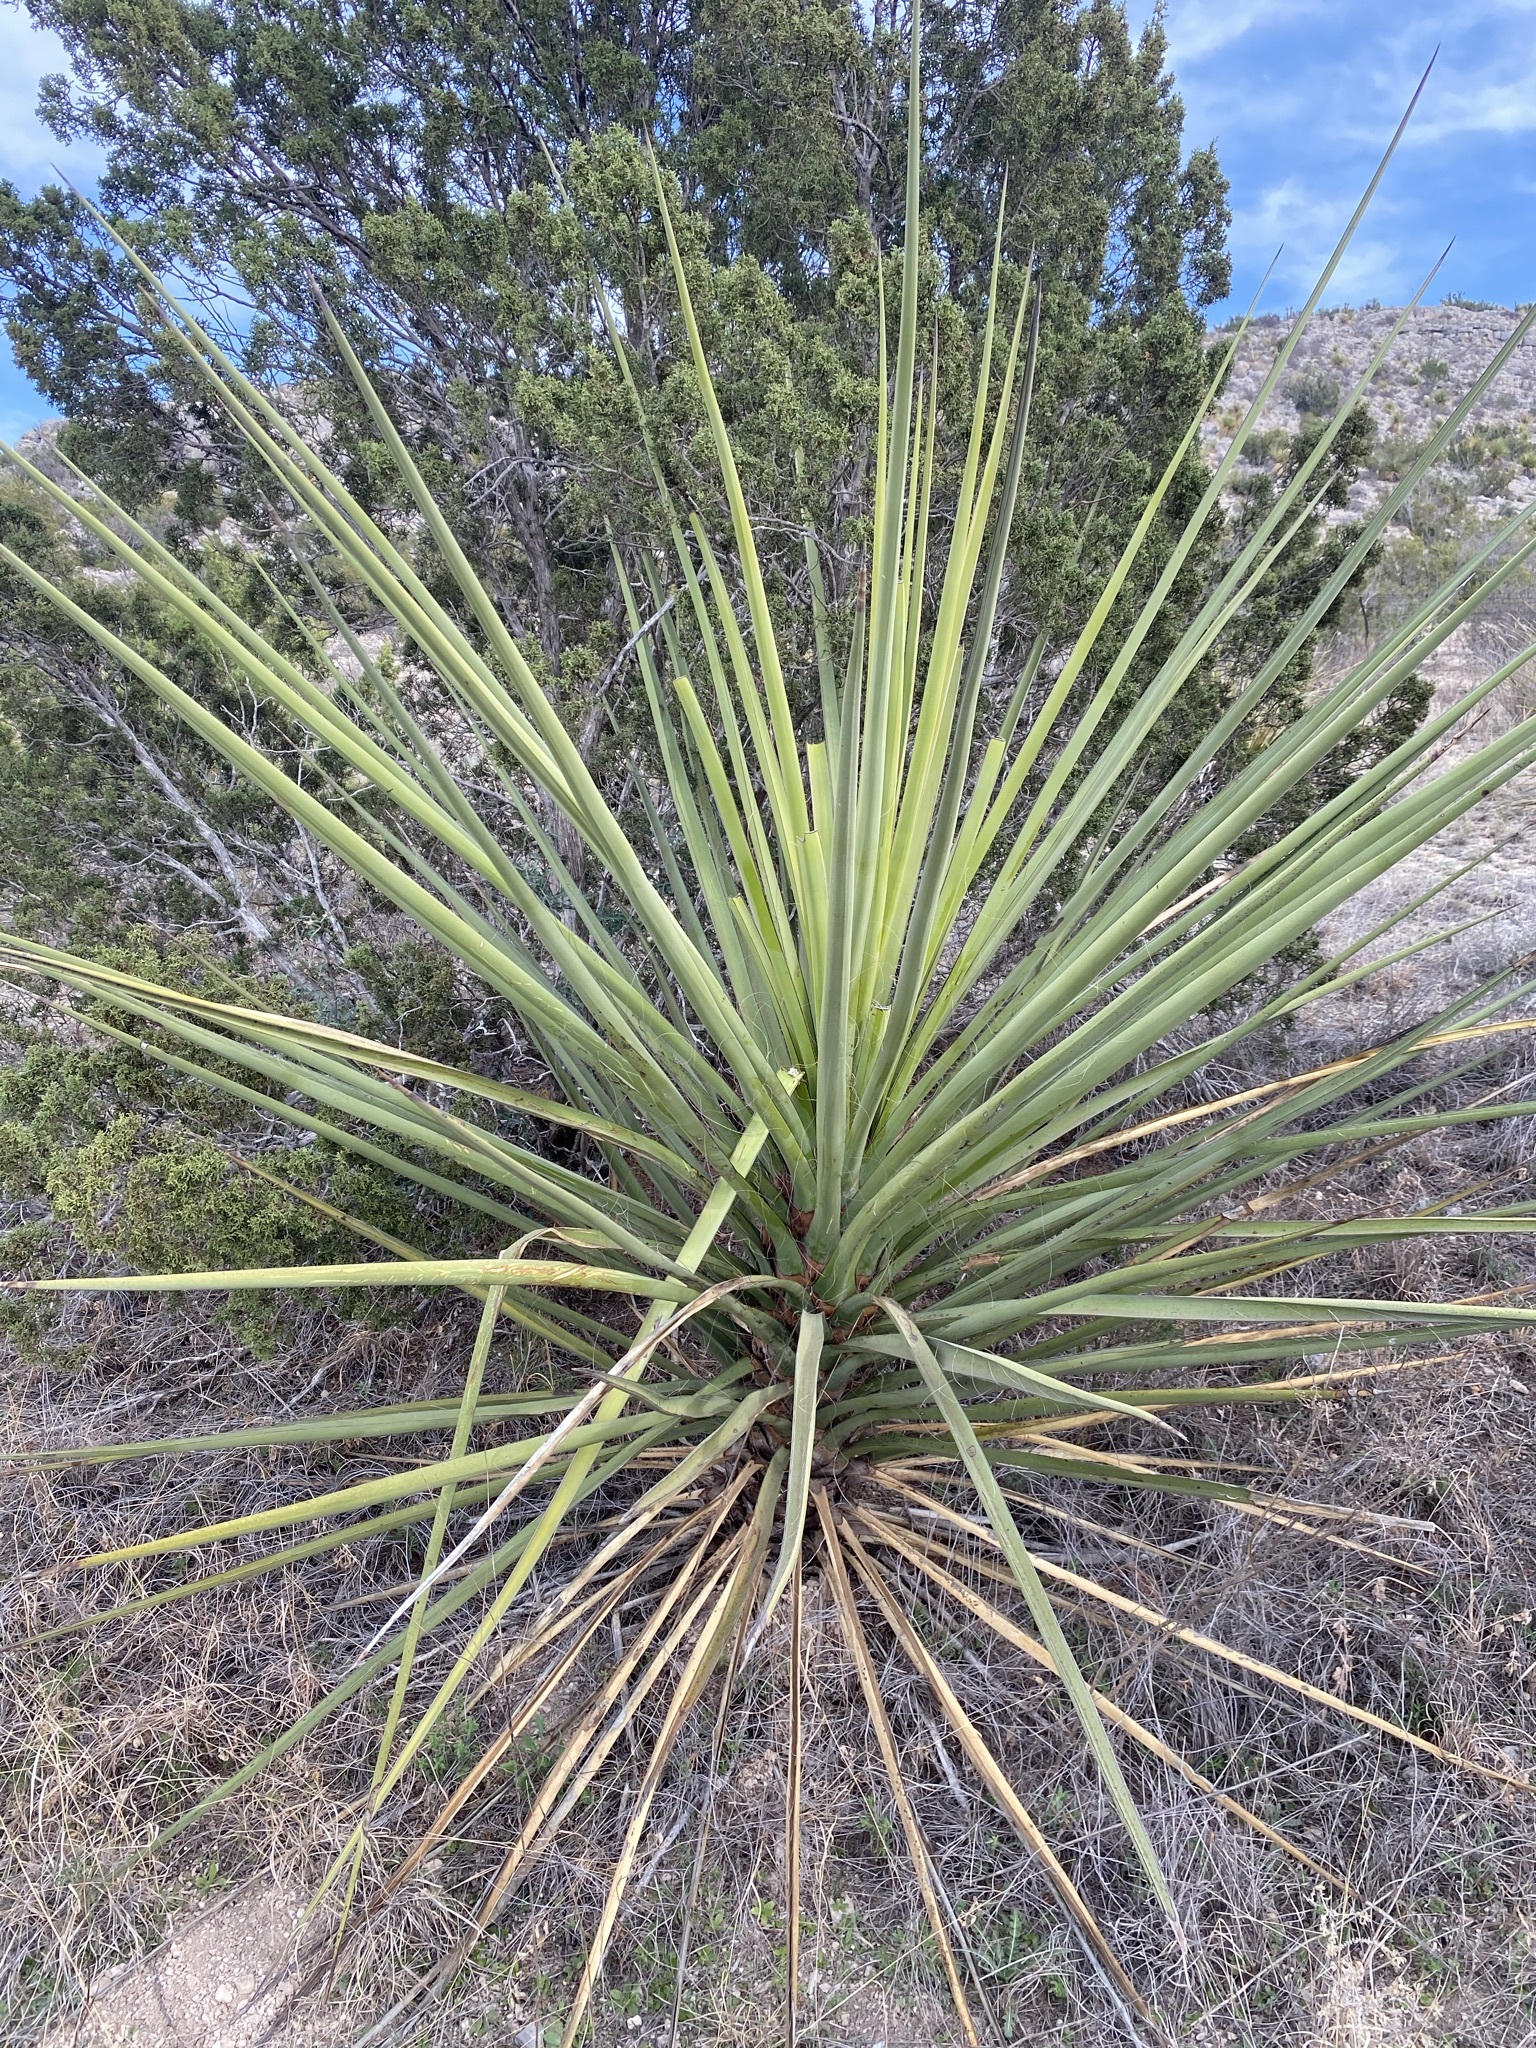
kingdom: Plantae
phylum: Tracheophyta
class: Liliopsida
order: Asparagales
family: Asparagaceae
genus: Yucca
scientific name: Yucca treculiana
